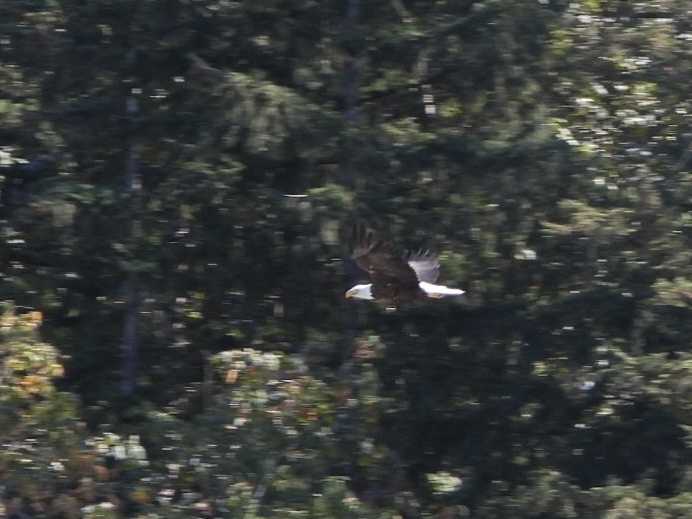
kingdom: Animalia
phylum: Chordata
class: Aves
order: Accipitriformes
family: Accipitridae
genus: Haliaeetus
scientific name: Haliaeetus leucocephalus
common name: Bald eagle
